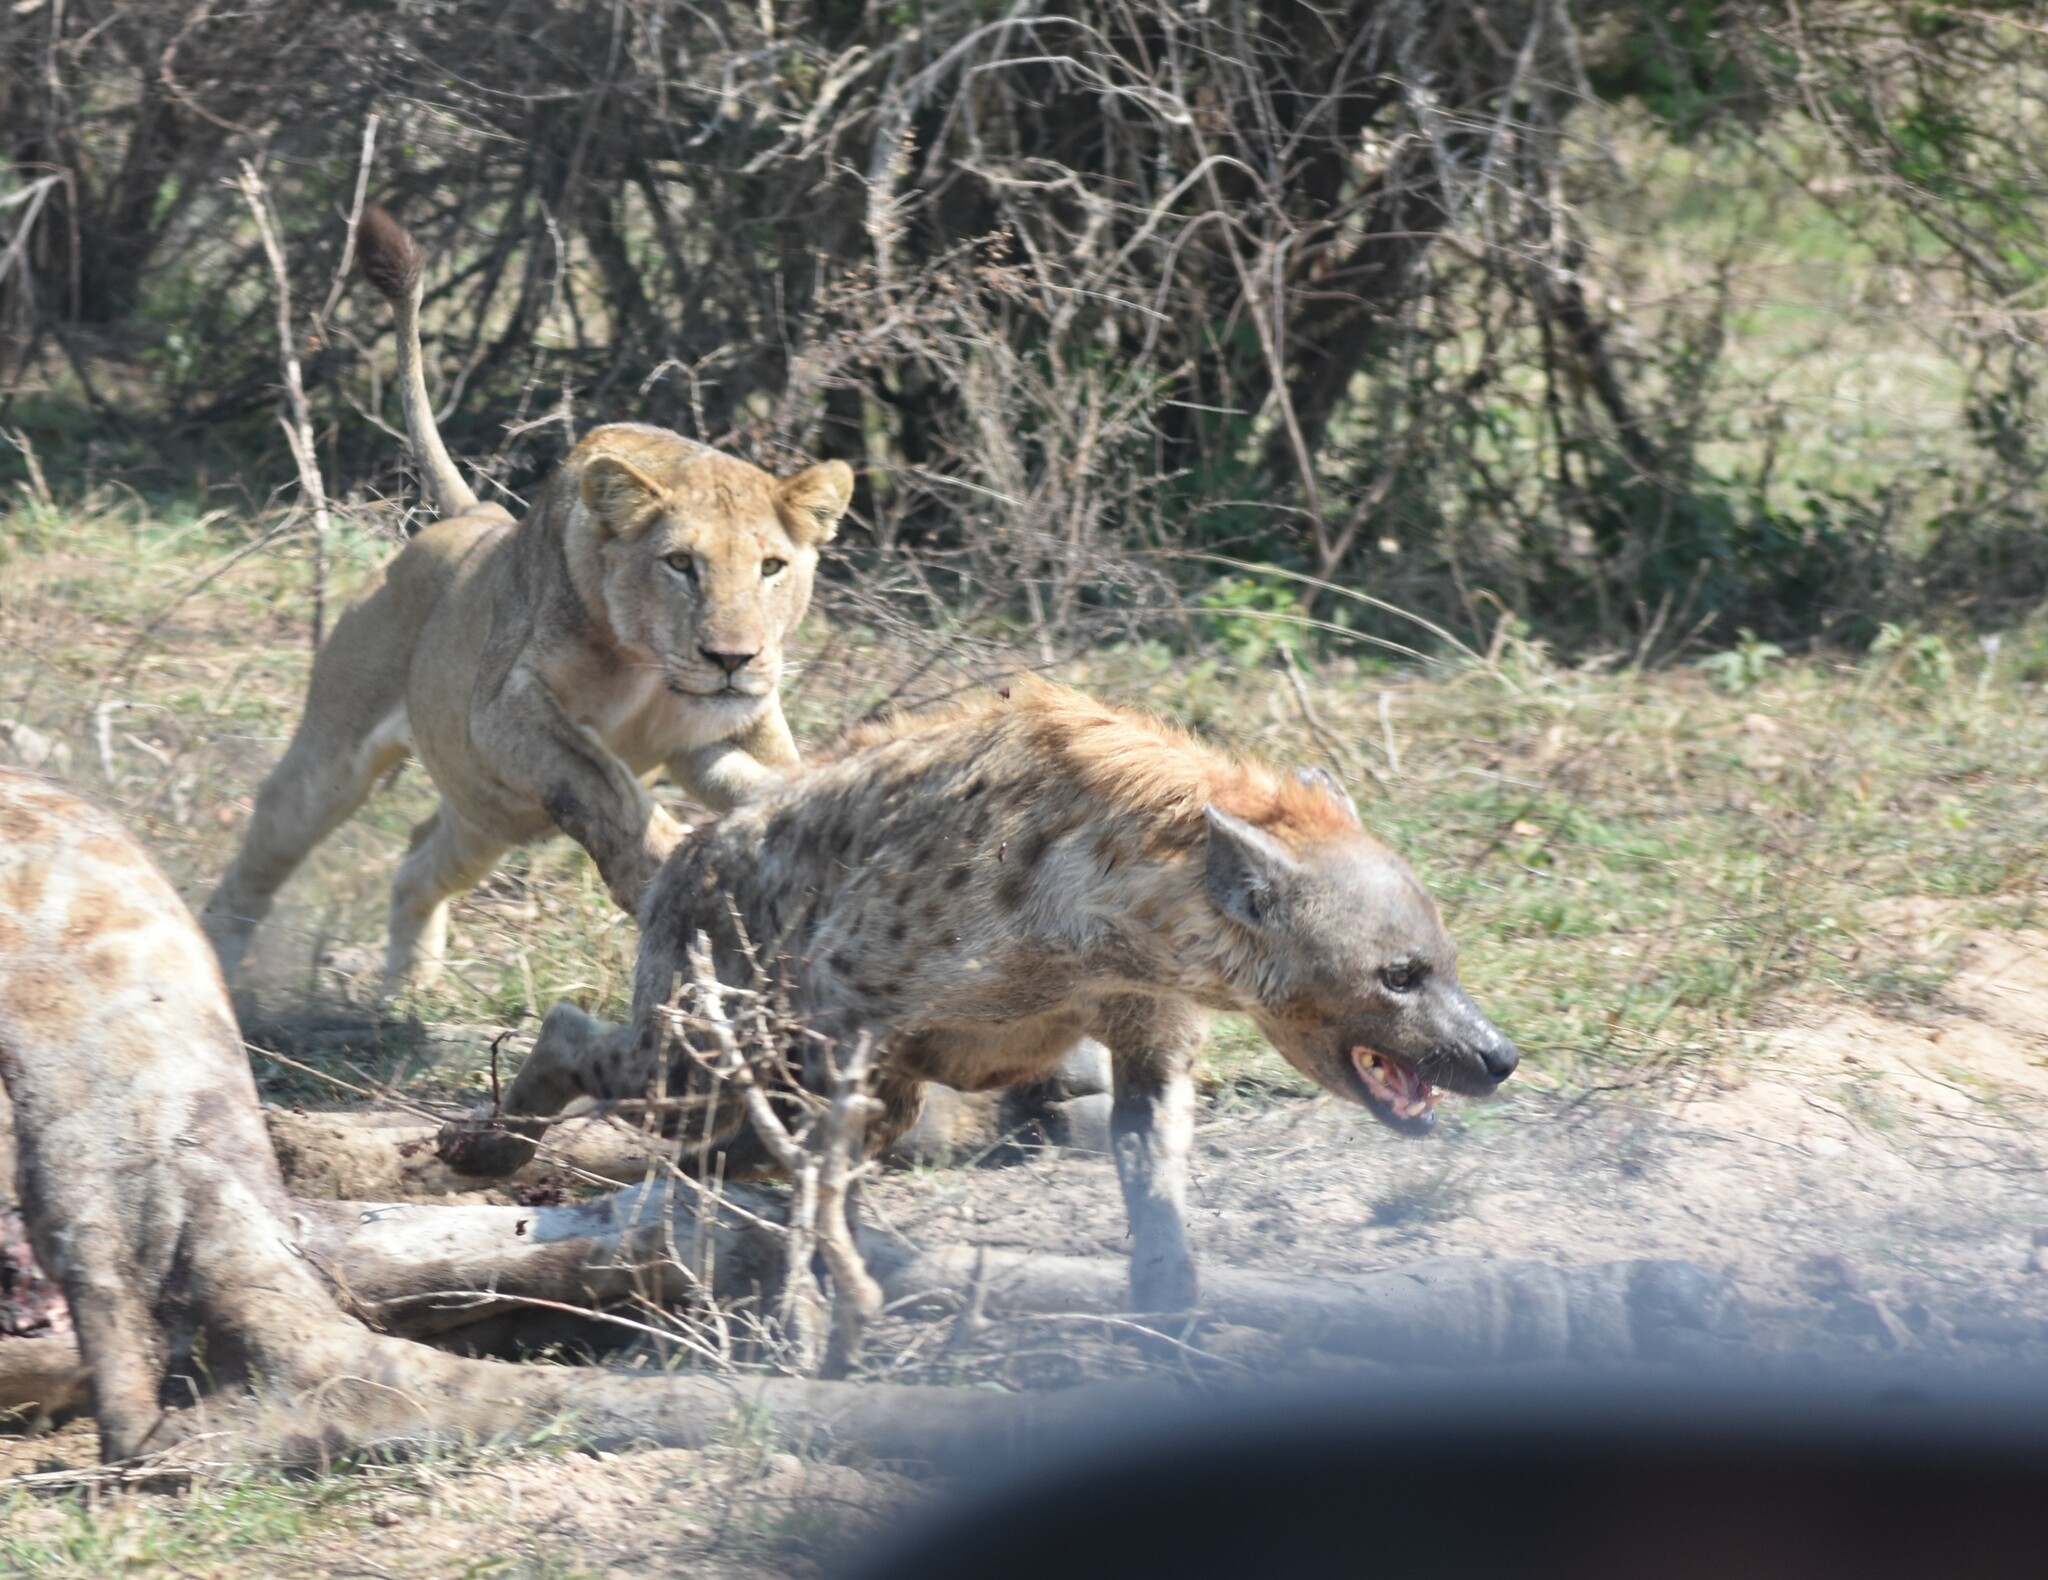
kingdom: Animalia
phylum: Chordata
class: Mammalia
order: Carnivora
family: Felidae
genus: Panthera
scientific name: Panthera leo
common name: Lion
